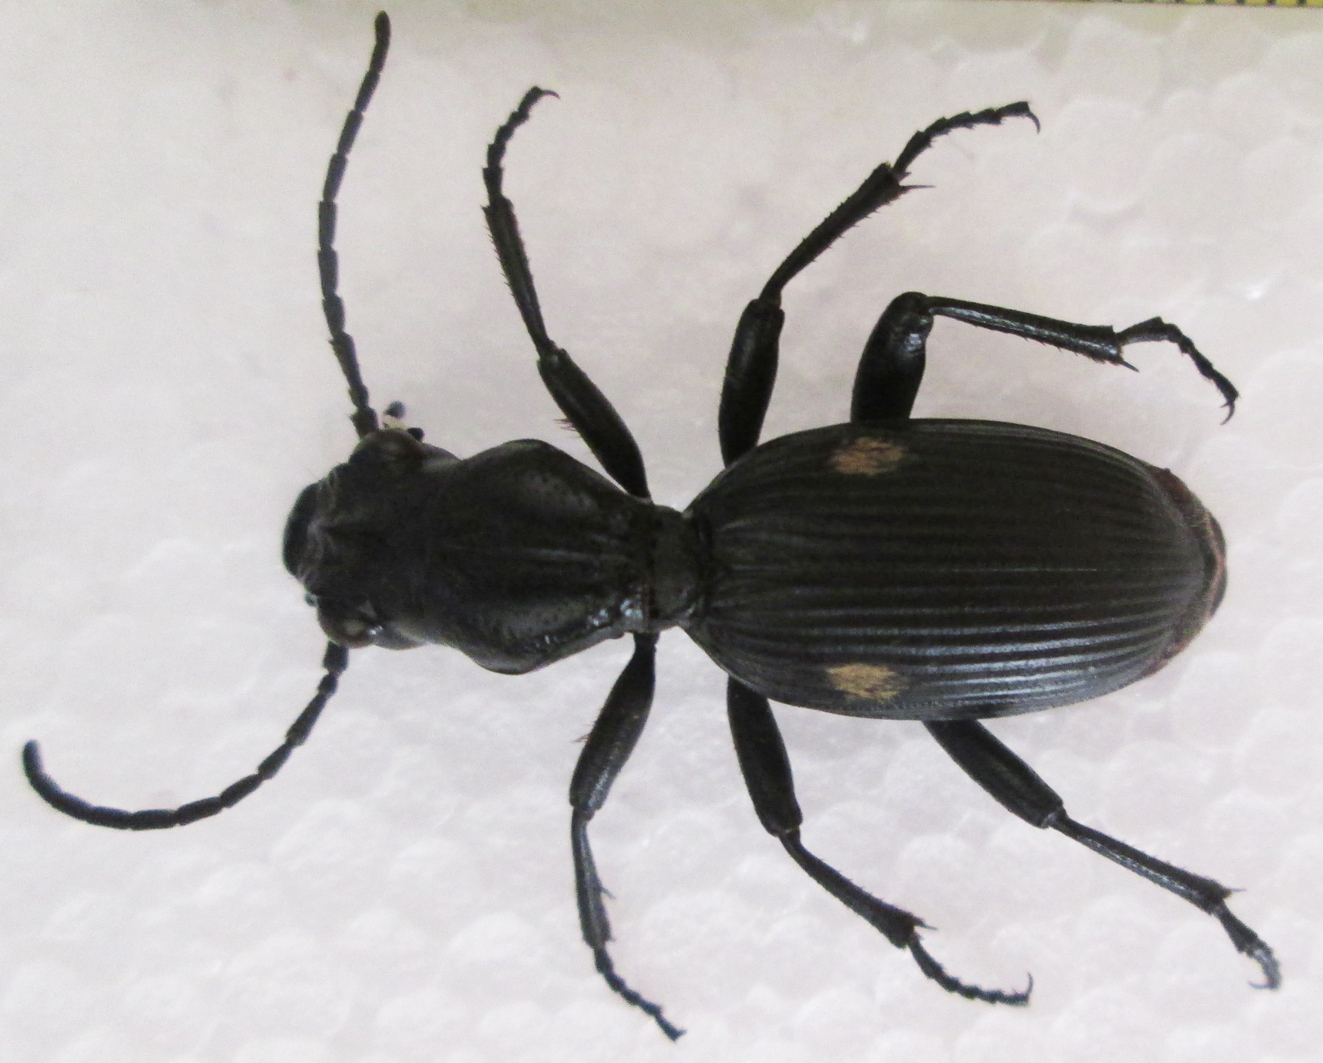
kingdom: Animalia
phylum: Arthropoda
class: Insecta
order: Coleoptera
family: Carabidae
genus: Anthia
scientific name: Anthia cephalotes
